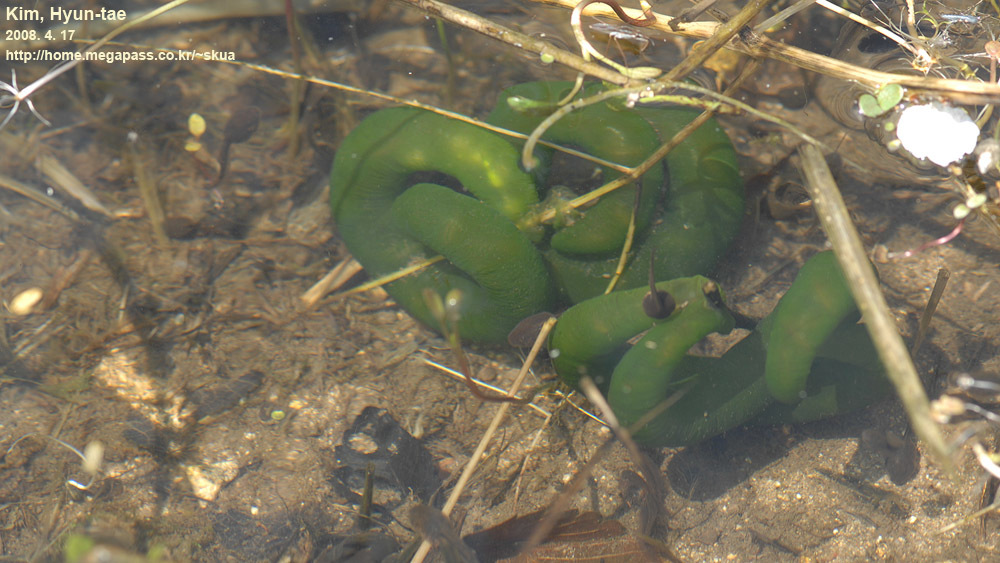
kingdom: Animalia
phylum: Chordata
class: Amphibia
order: Caudata
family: Hynobiidae
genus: Hynobius
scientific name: Hynobius leechii
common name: Gensan salamander
